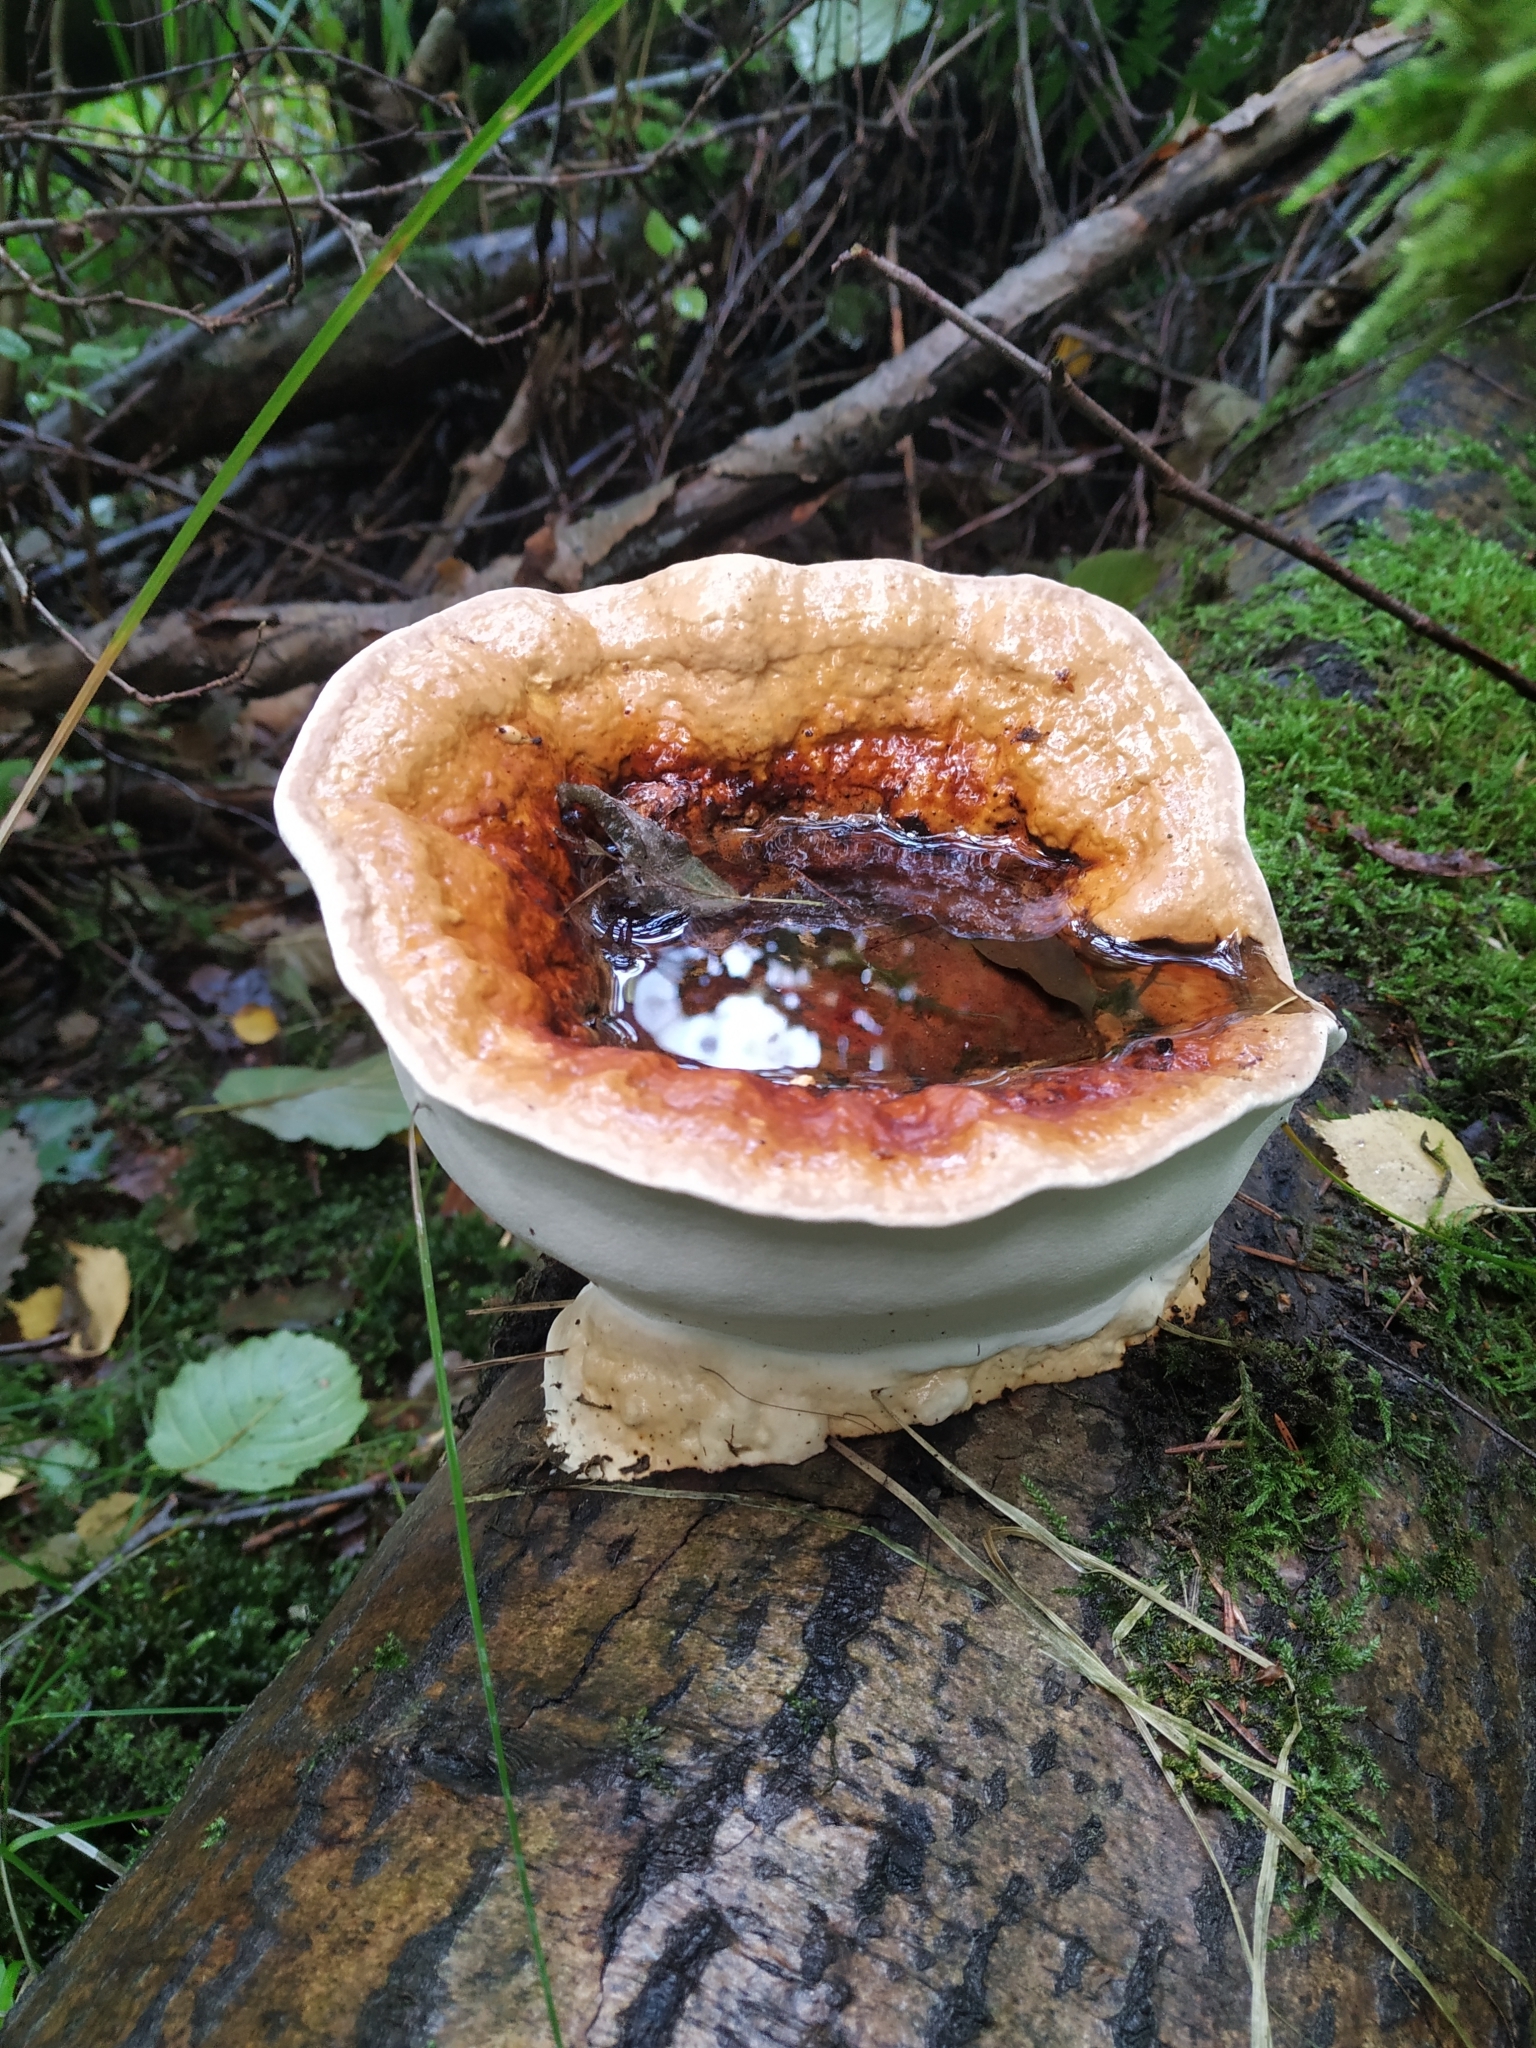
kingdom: Fungi
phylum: Basidiomycota
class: Agaricomycetes
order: Polyporales
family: Fomitopsidaceae
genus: Fomitopsis
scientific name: Fomitopsis pinicola
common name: Red-belted bracket
